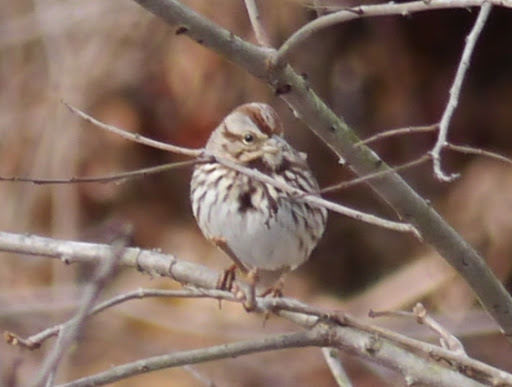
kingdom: Animalia
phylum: Chordata
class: Aves
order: Passeriformes
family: Passerellidae
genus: Melospiza
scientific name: Melospiza melodia
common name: Song sparrow
